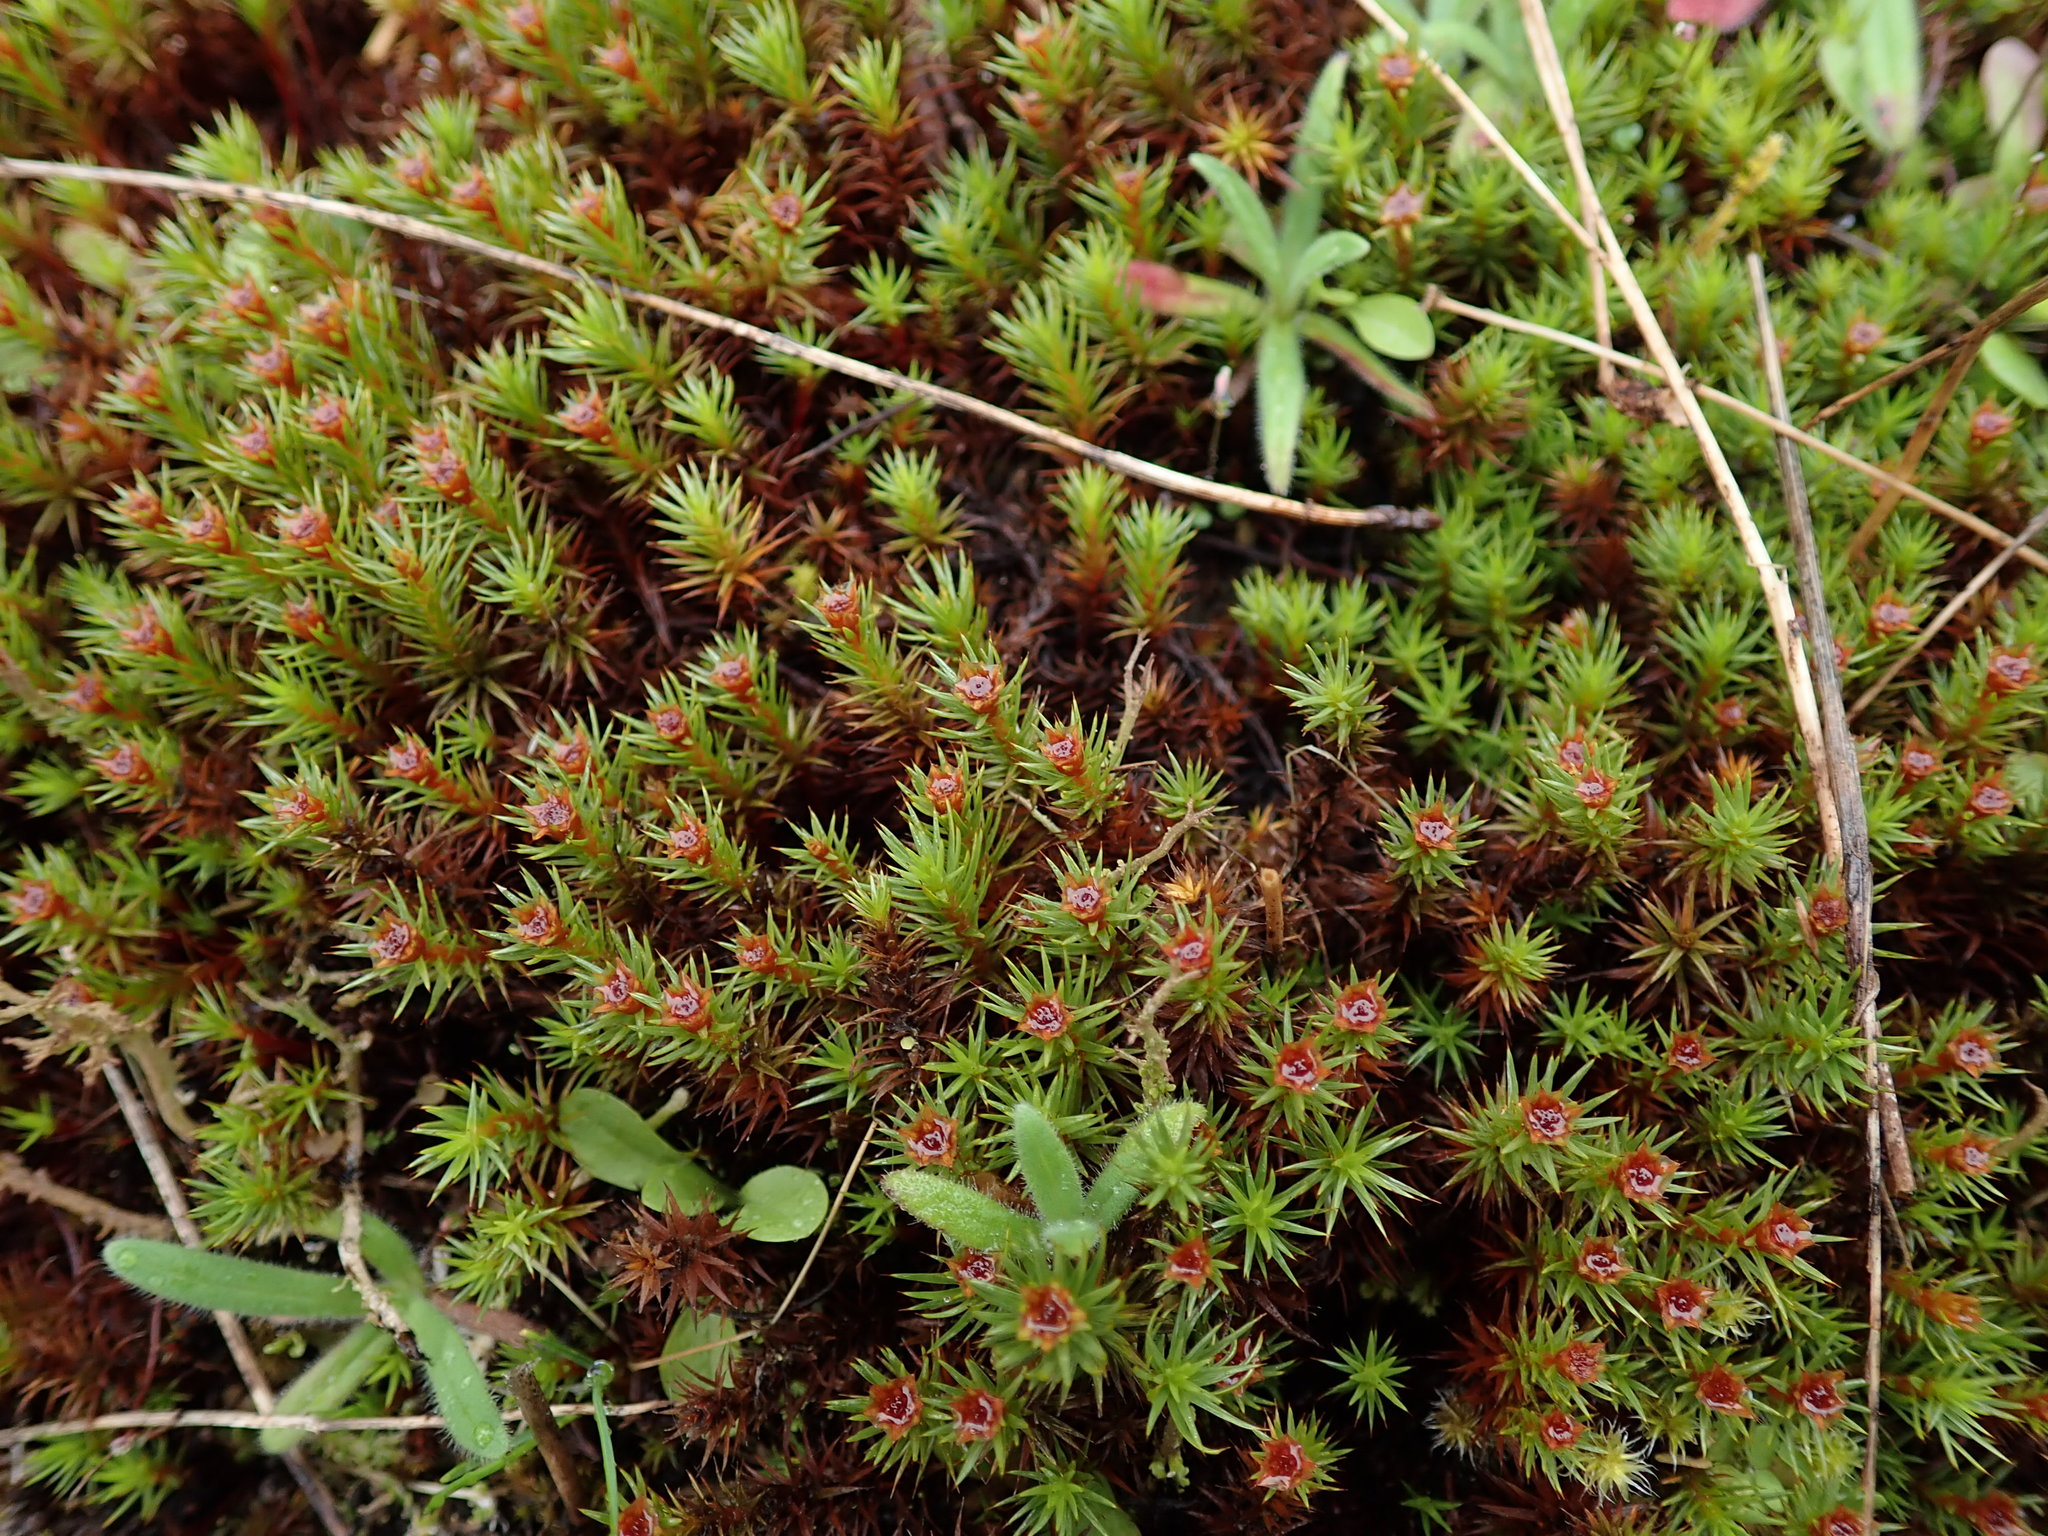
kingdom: Plantae
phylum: Bryophyta
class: Polytrichopsida
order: Polytrichales
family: Polytrichaceae
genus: Polytrichum
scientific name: Polytrichum juniperinum
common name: Juniper haircap moss
